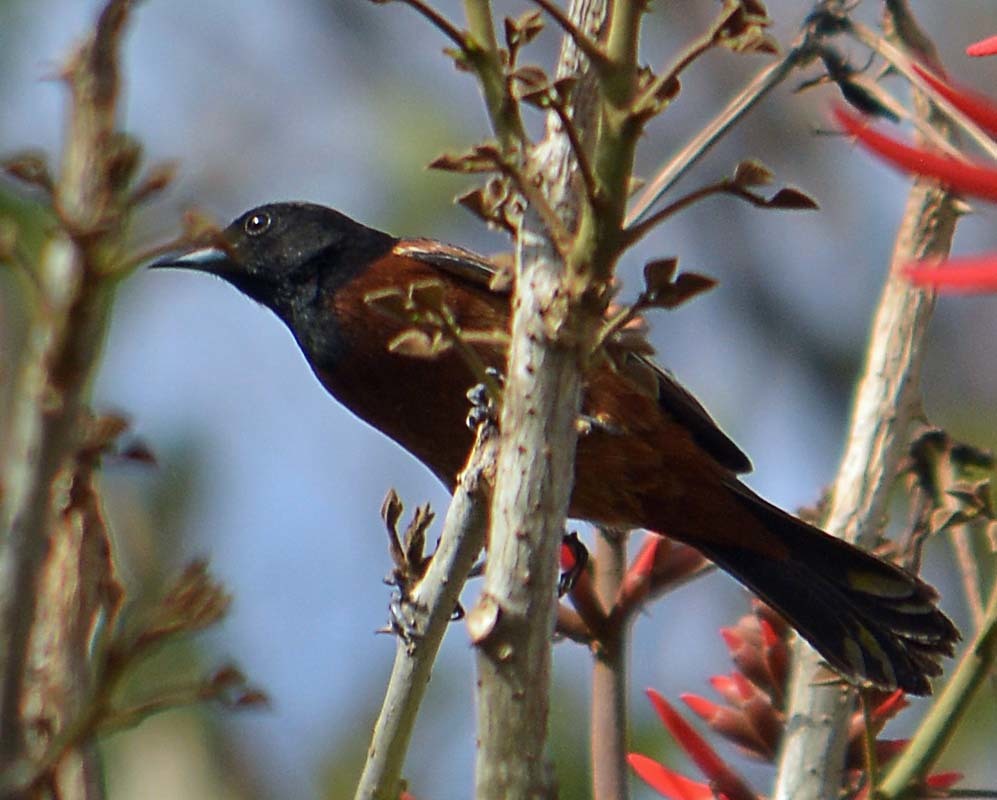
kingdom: Animalia
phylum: Chordata
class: Aves
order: Passeriformes
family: Icteridae
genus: Icterus
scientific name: Icterus spurius
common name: Orchard oriole
